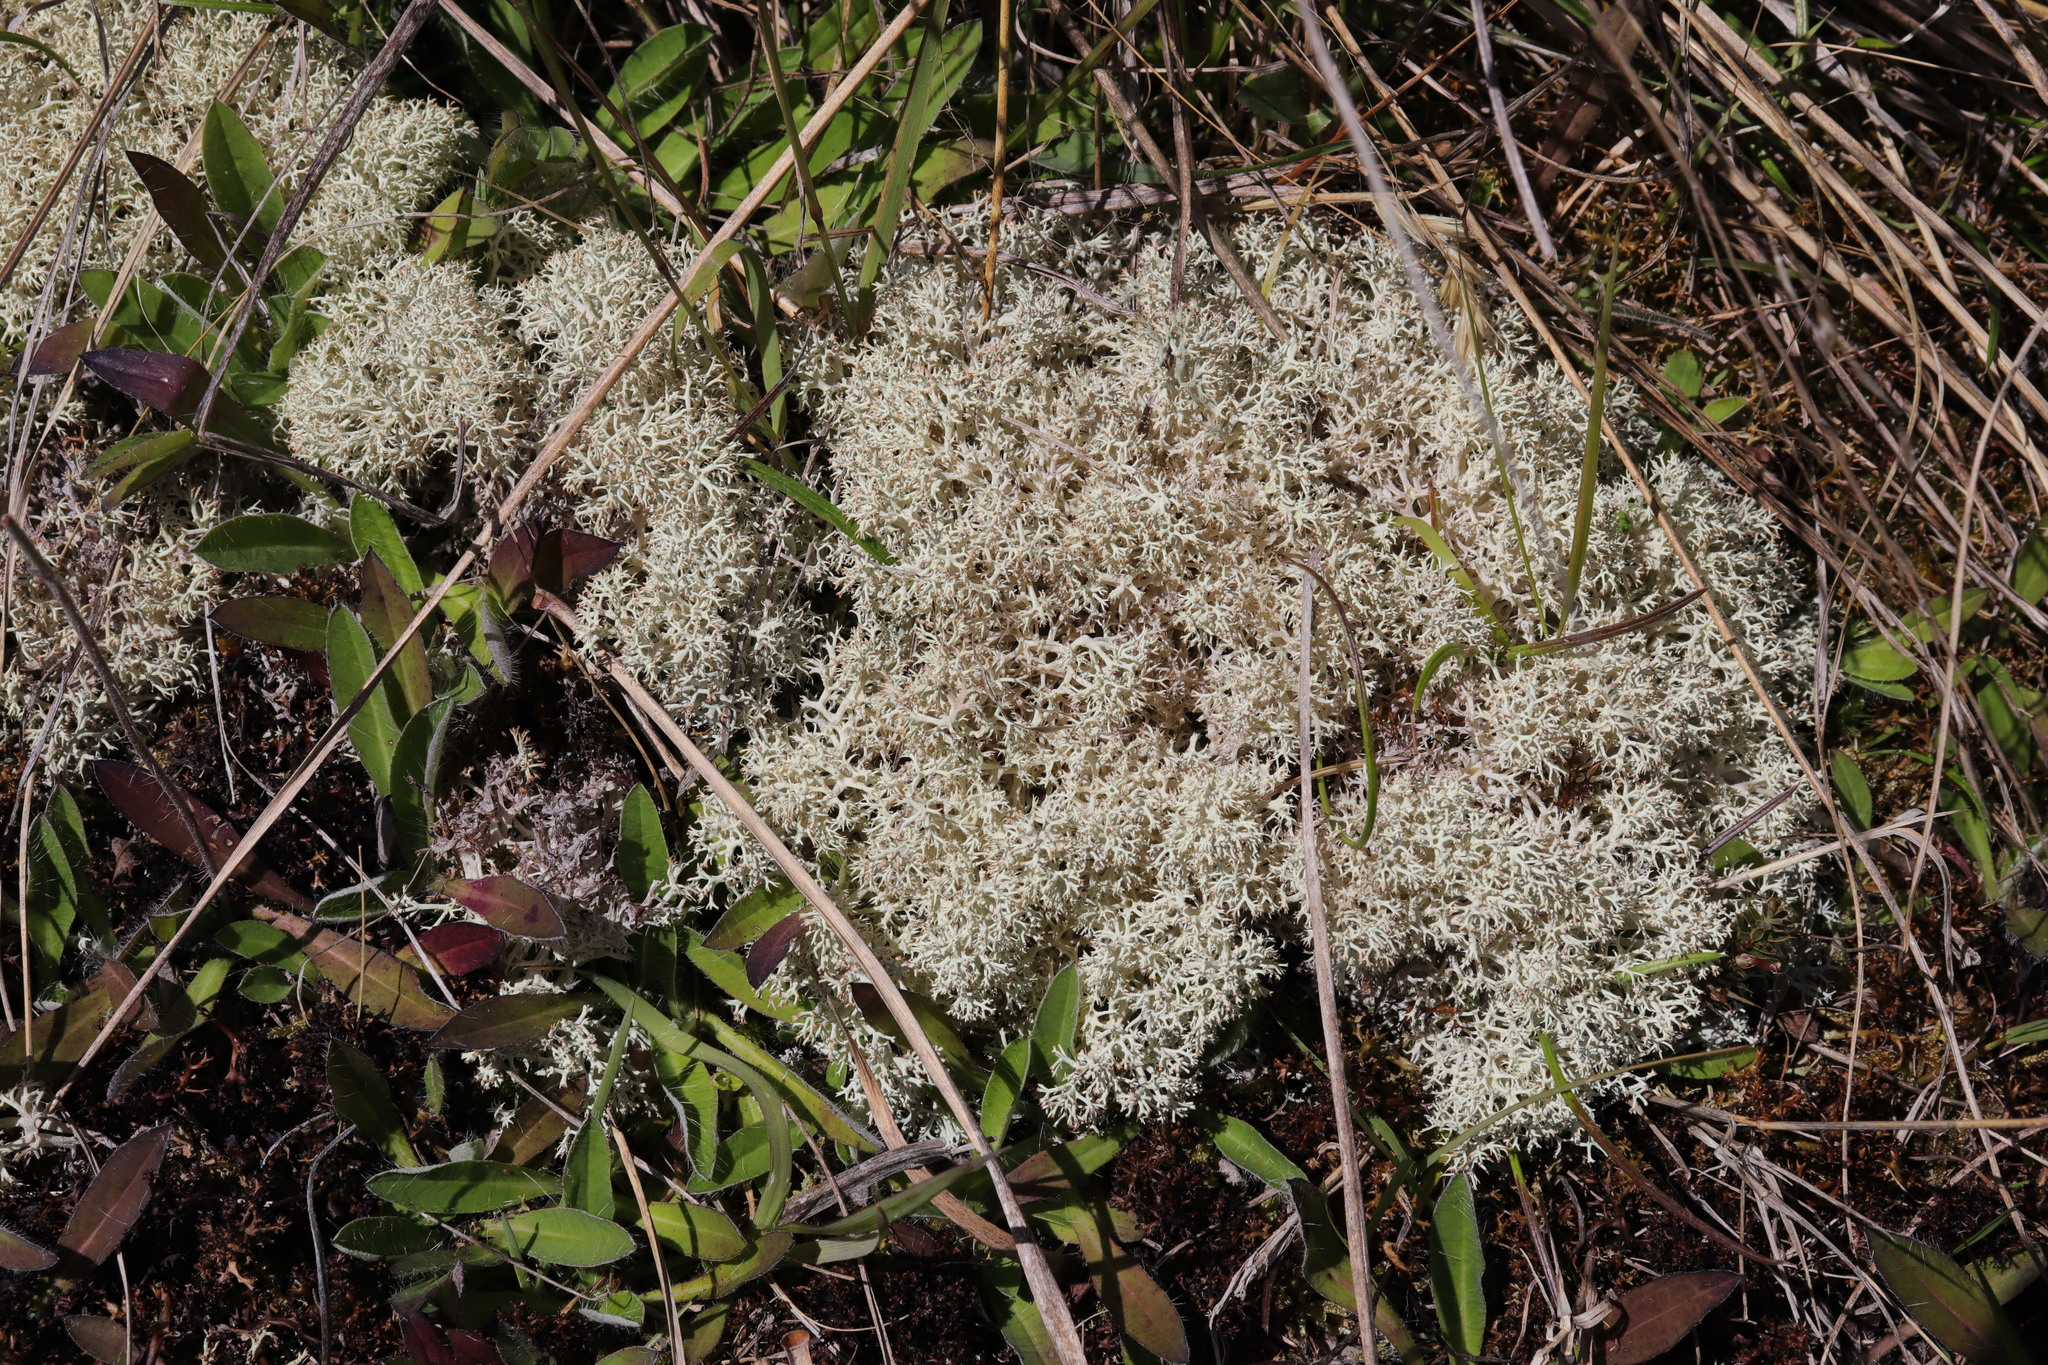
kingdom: Fungi
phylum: Ascomycota
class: Lecanoromycetes
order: Lecanorales
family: Cladoniaceae
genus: Cladonia
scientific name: Cladonia confusa
